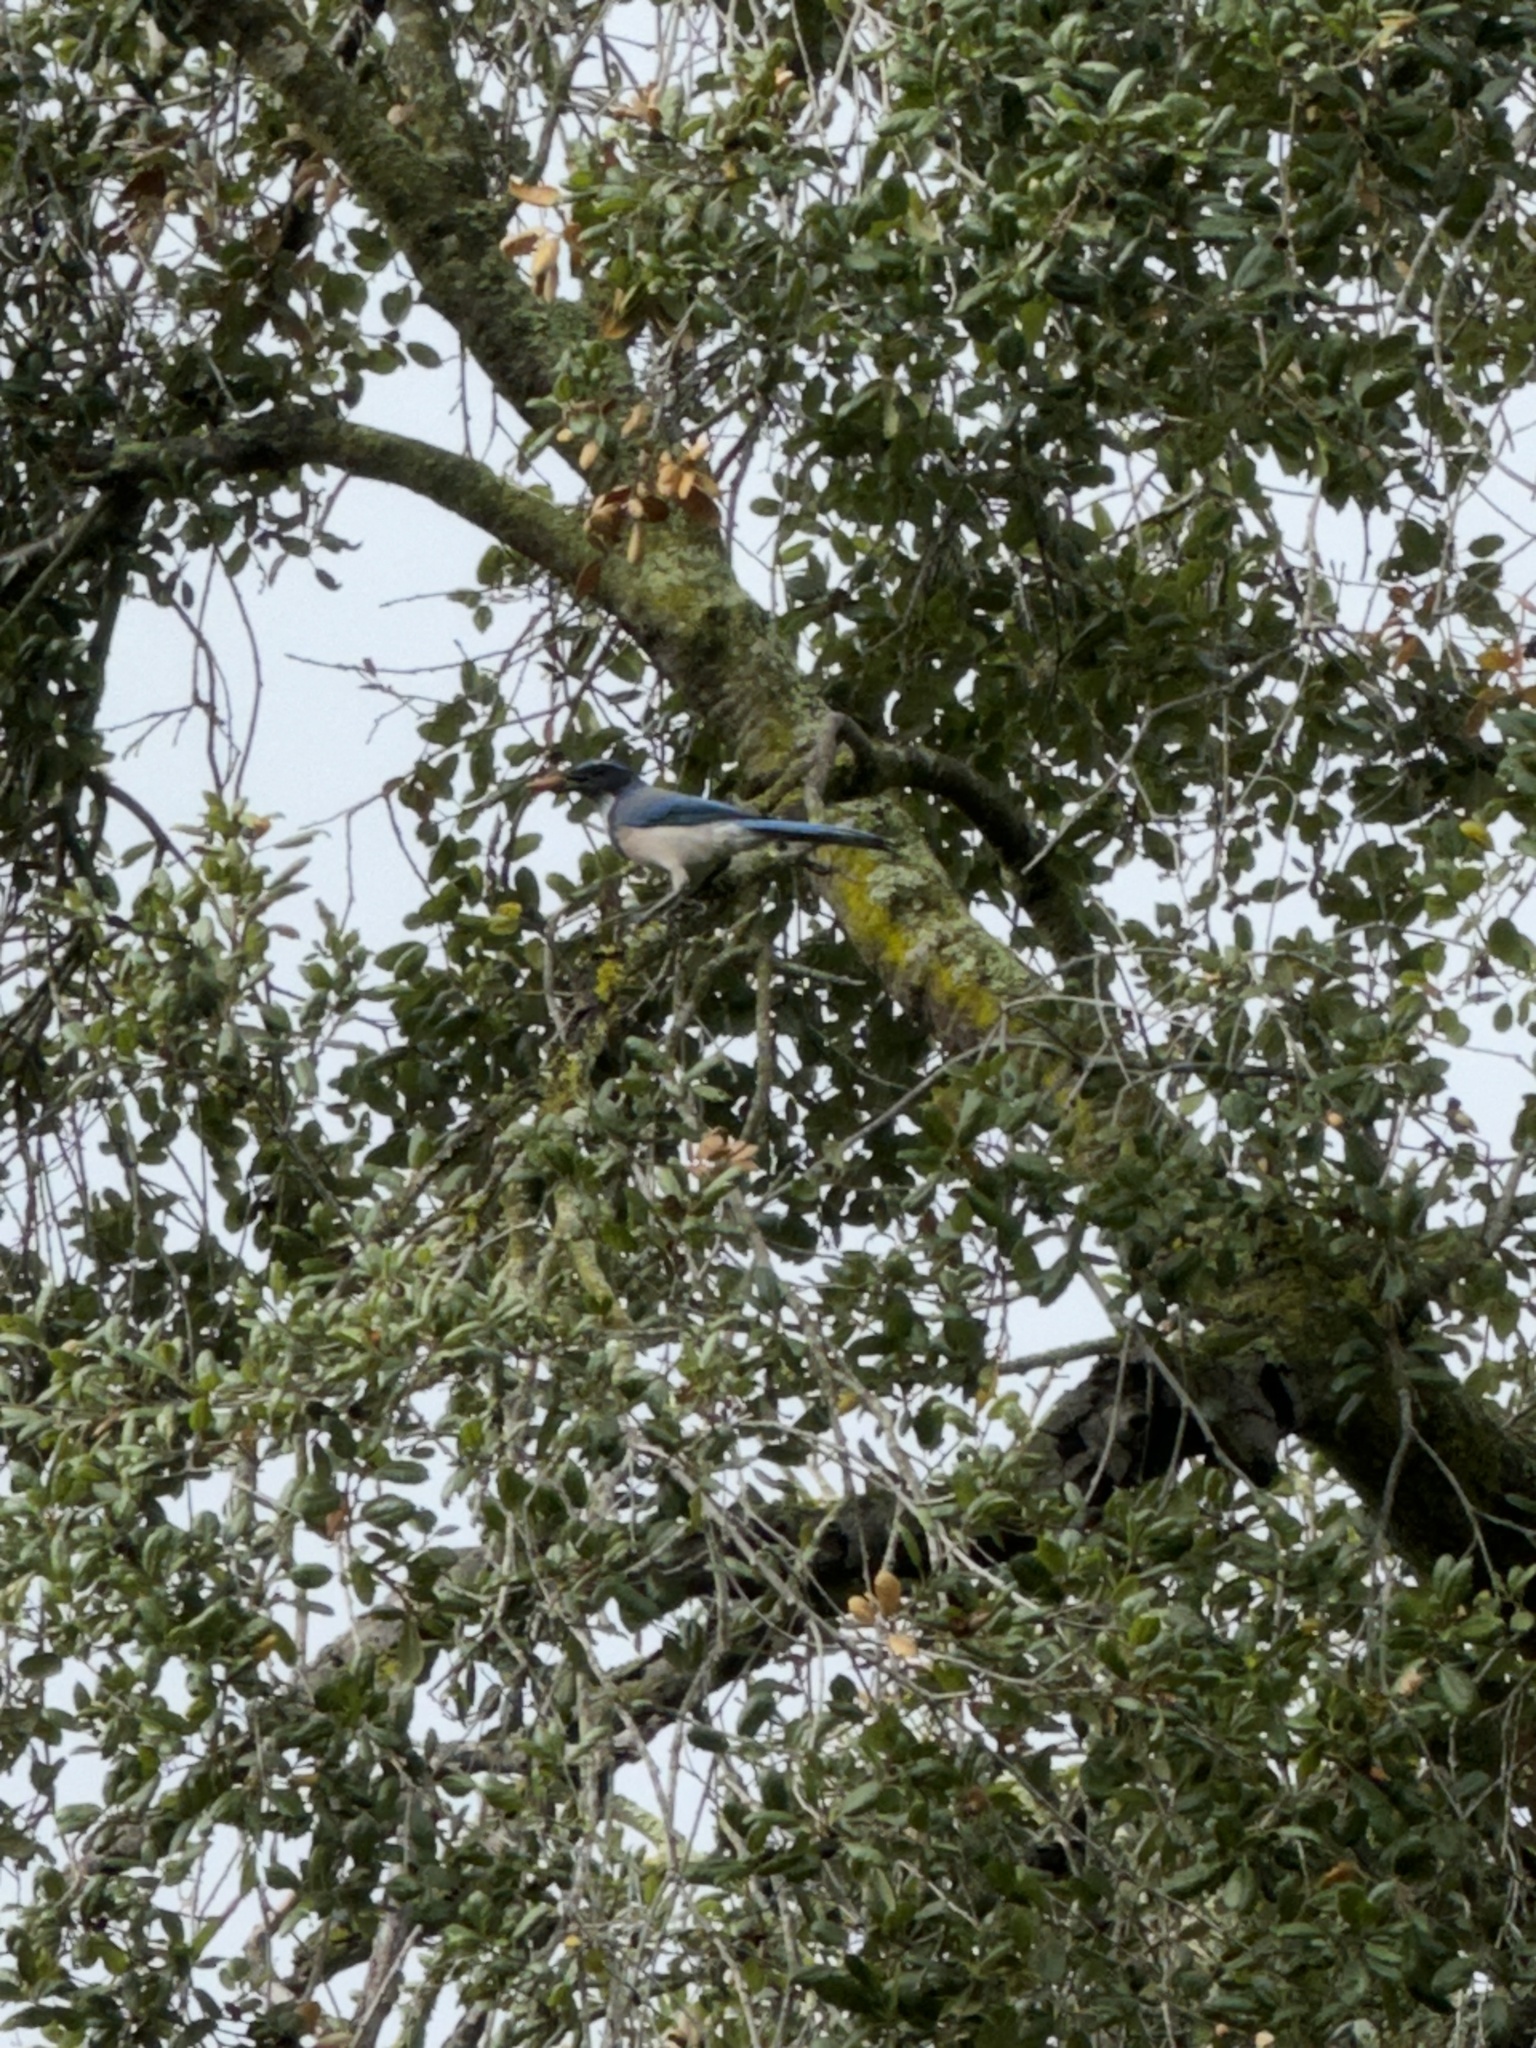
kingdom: Animalia
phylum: Chordata
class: Aves
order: Passeriformes
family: Corvidae
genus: Aphelocoma
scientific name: Aphelocoma californica
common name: California scrub-jay
